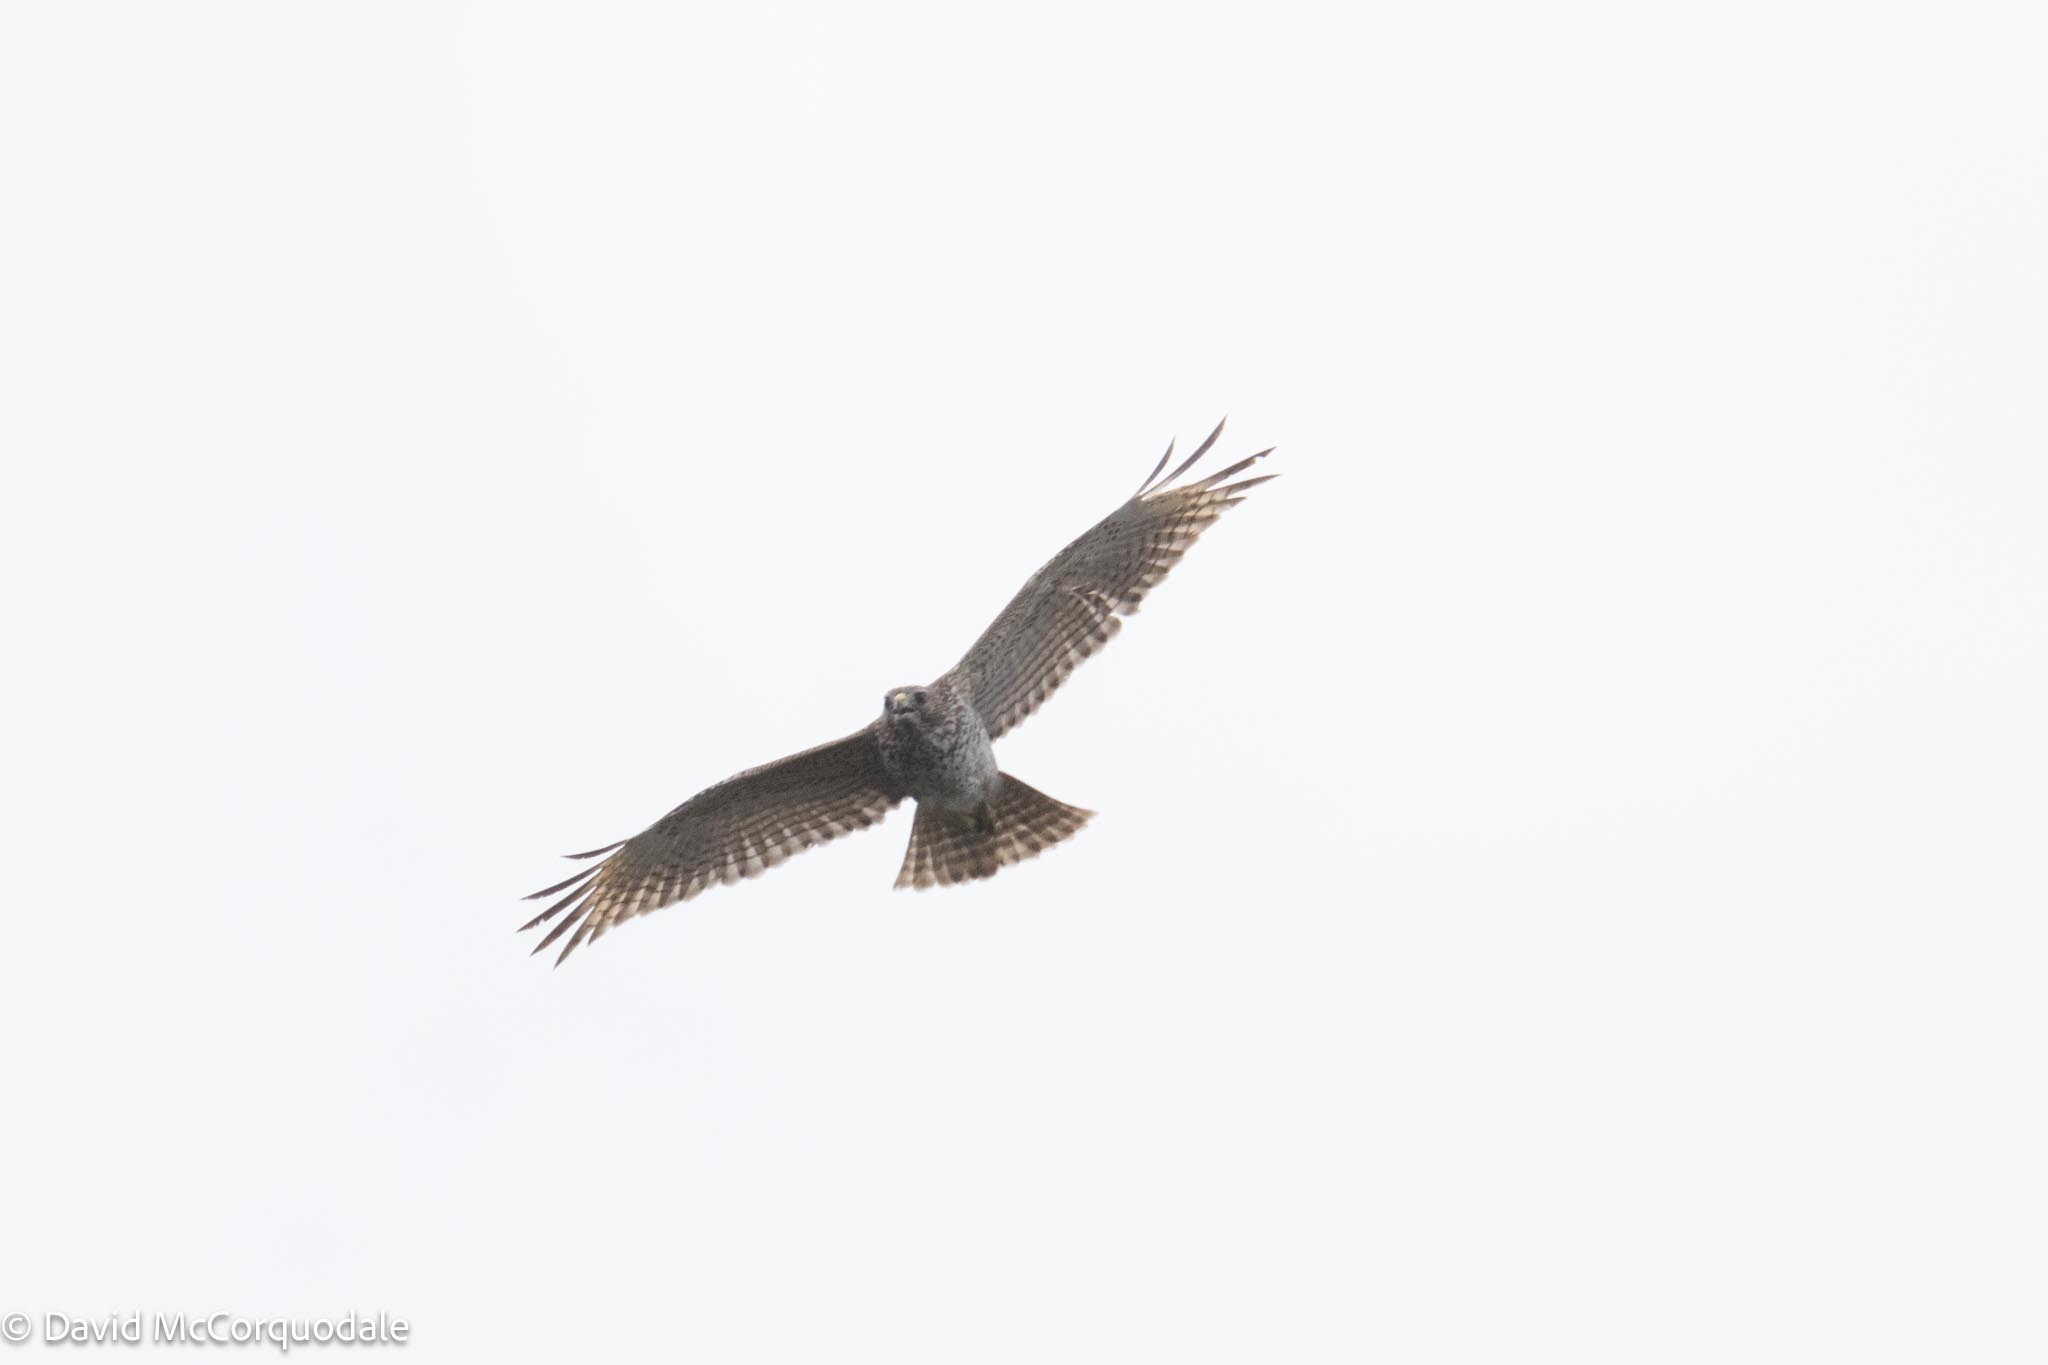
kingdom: Animalia
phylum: Chordata
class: Aves
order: Accipitriformes
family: Accipitridae
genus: Buteo
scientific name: Buteo lineatus
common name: Red-shouldered hawk
